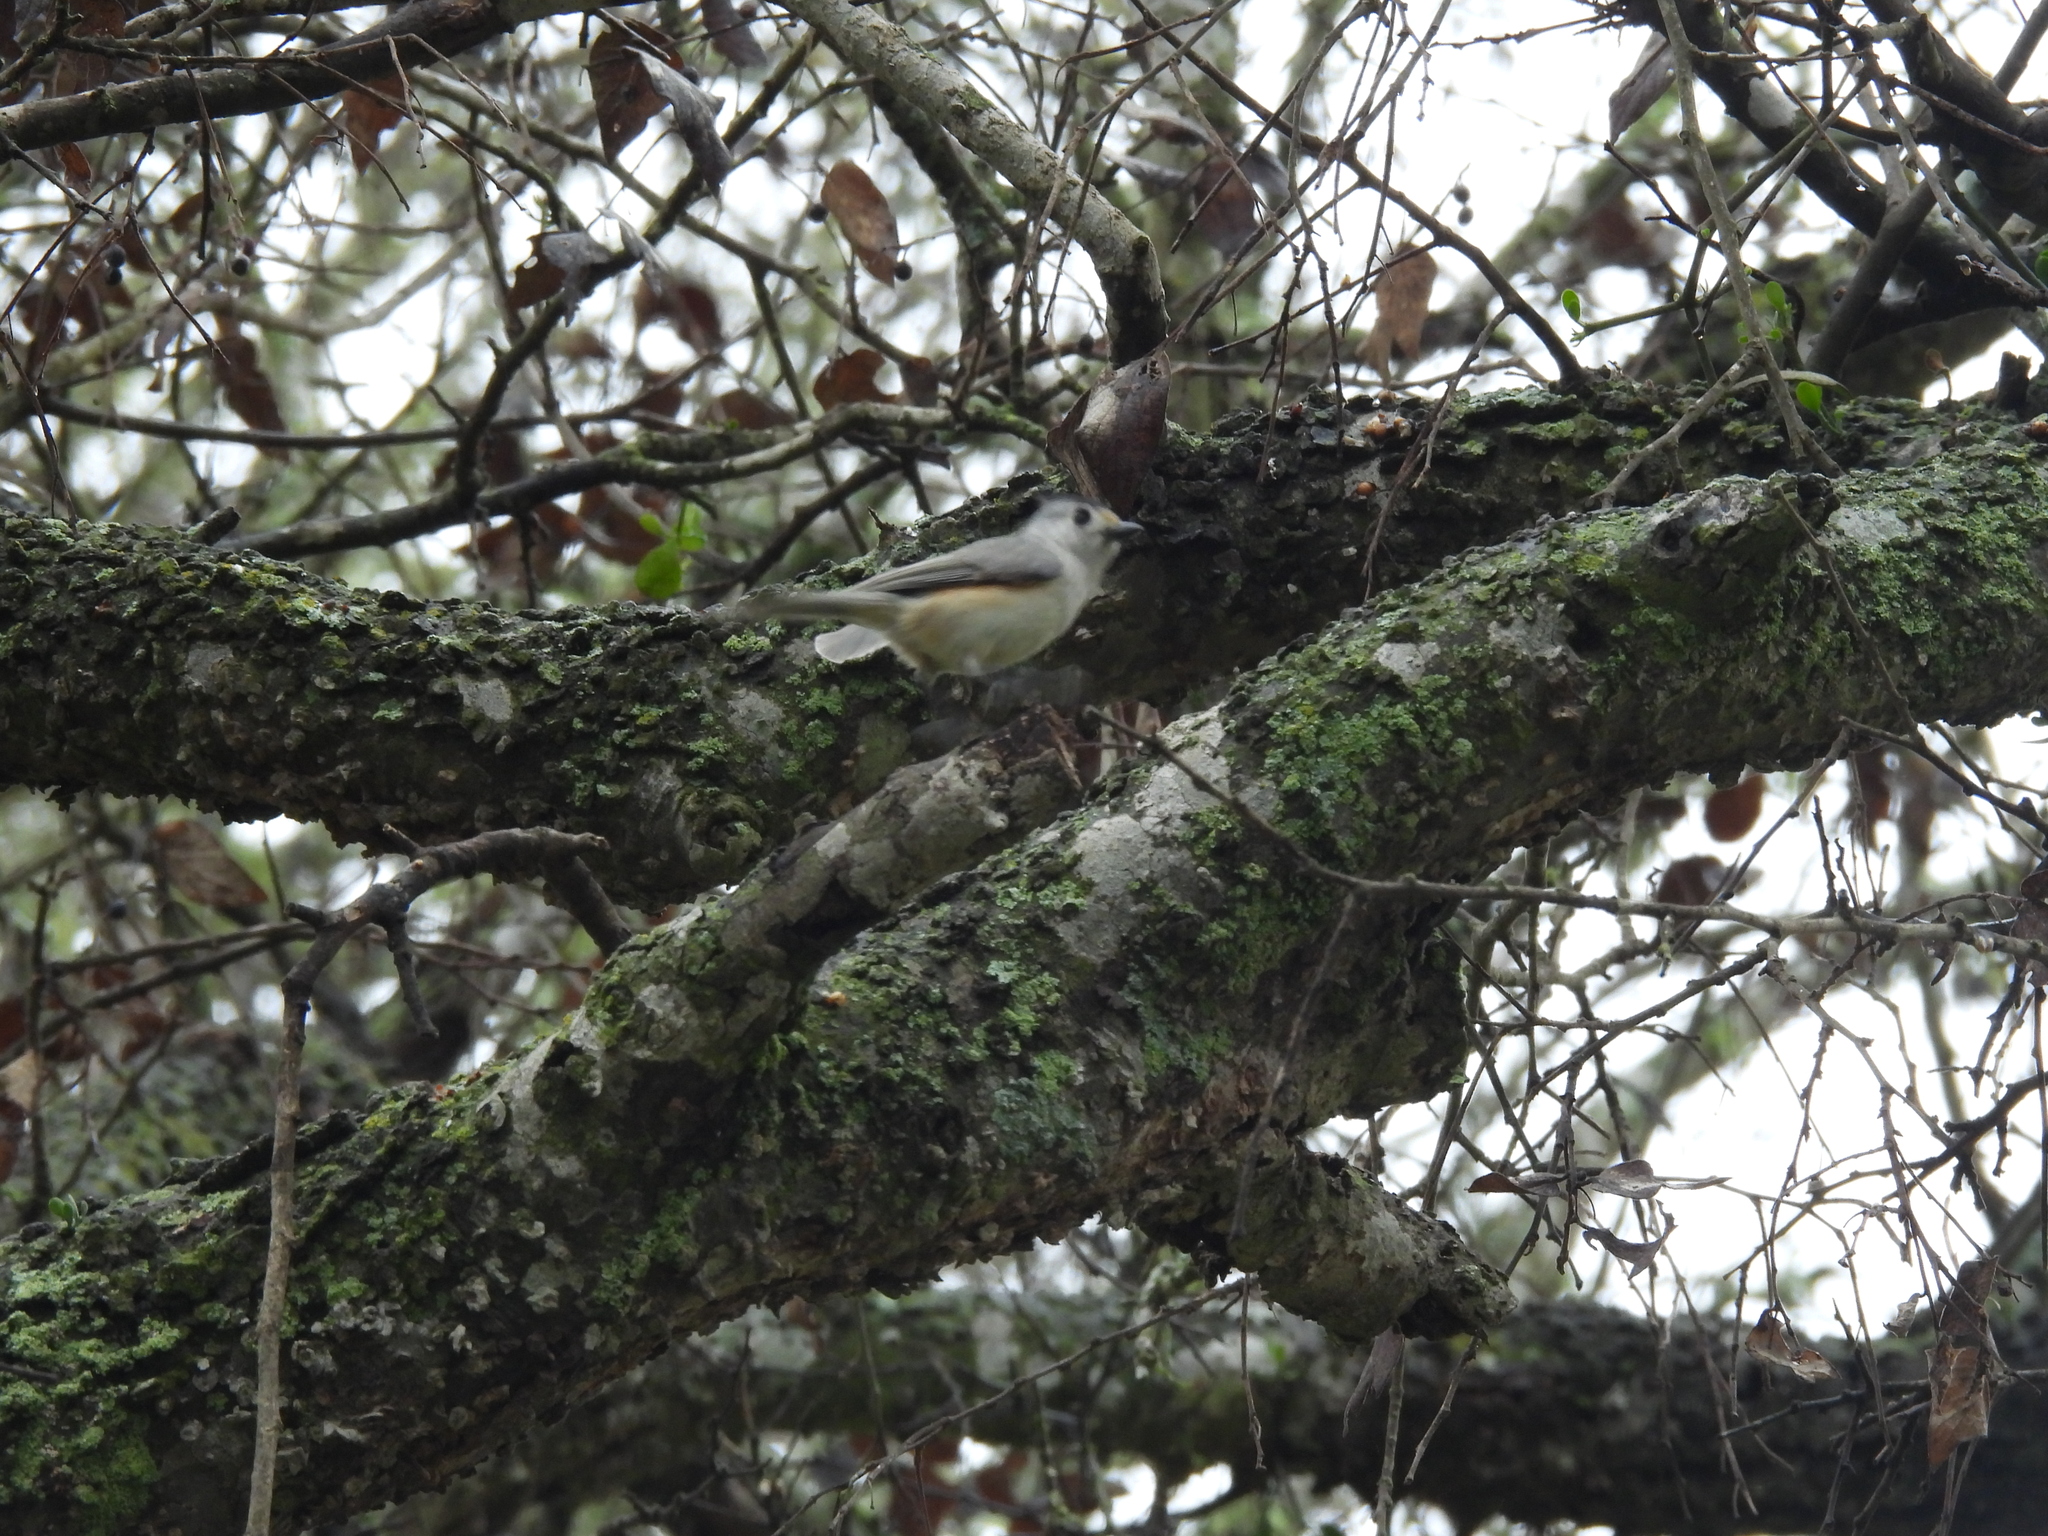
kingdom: Animalia
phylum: Chordata
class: Aves
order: Passeriformes
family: Paridae
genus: Baeolophus
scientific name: Baeolophus atricristatus
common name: Black-crested titmouse
